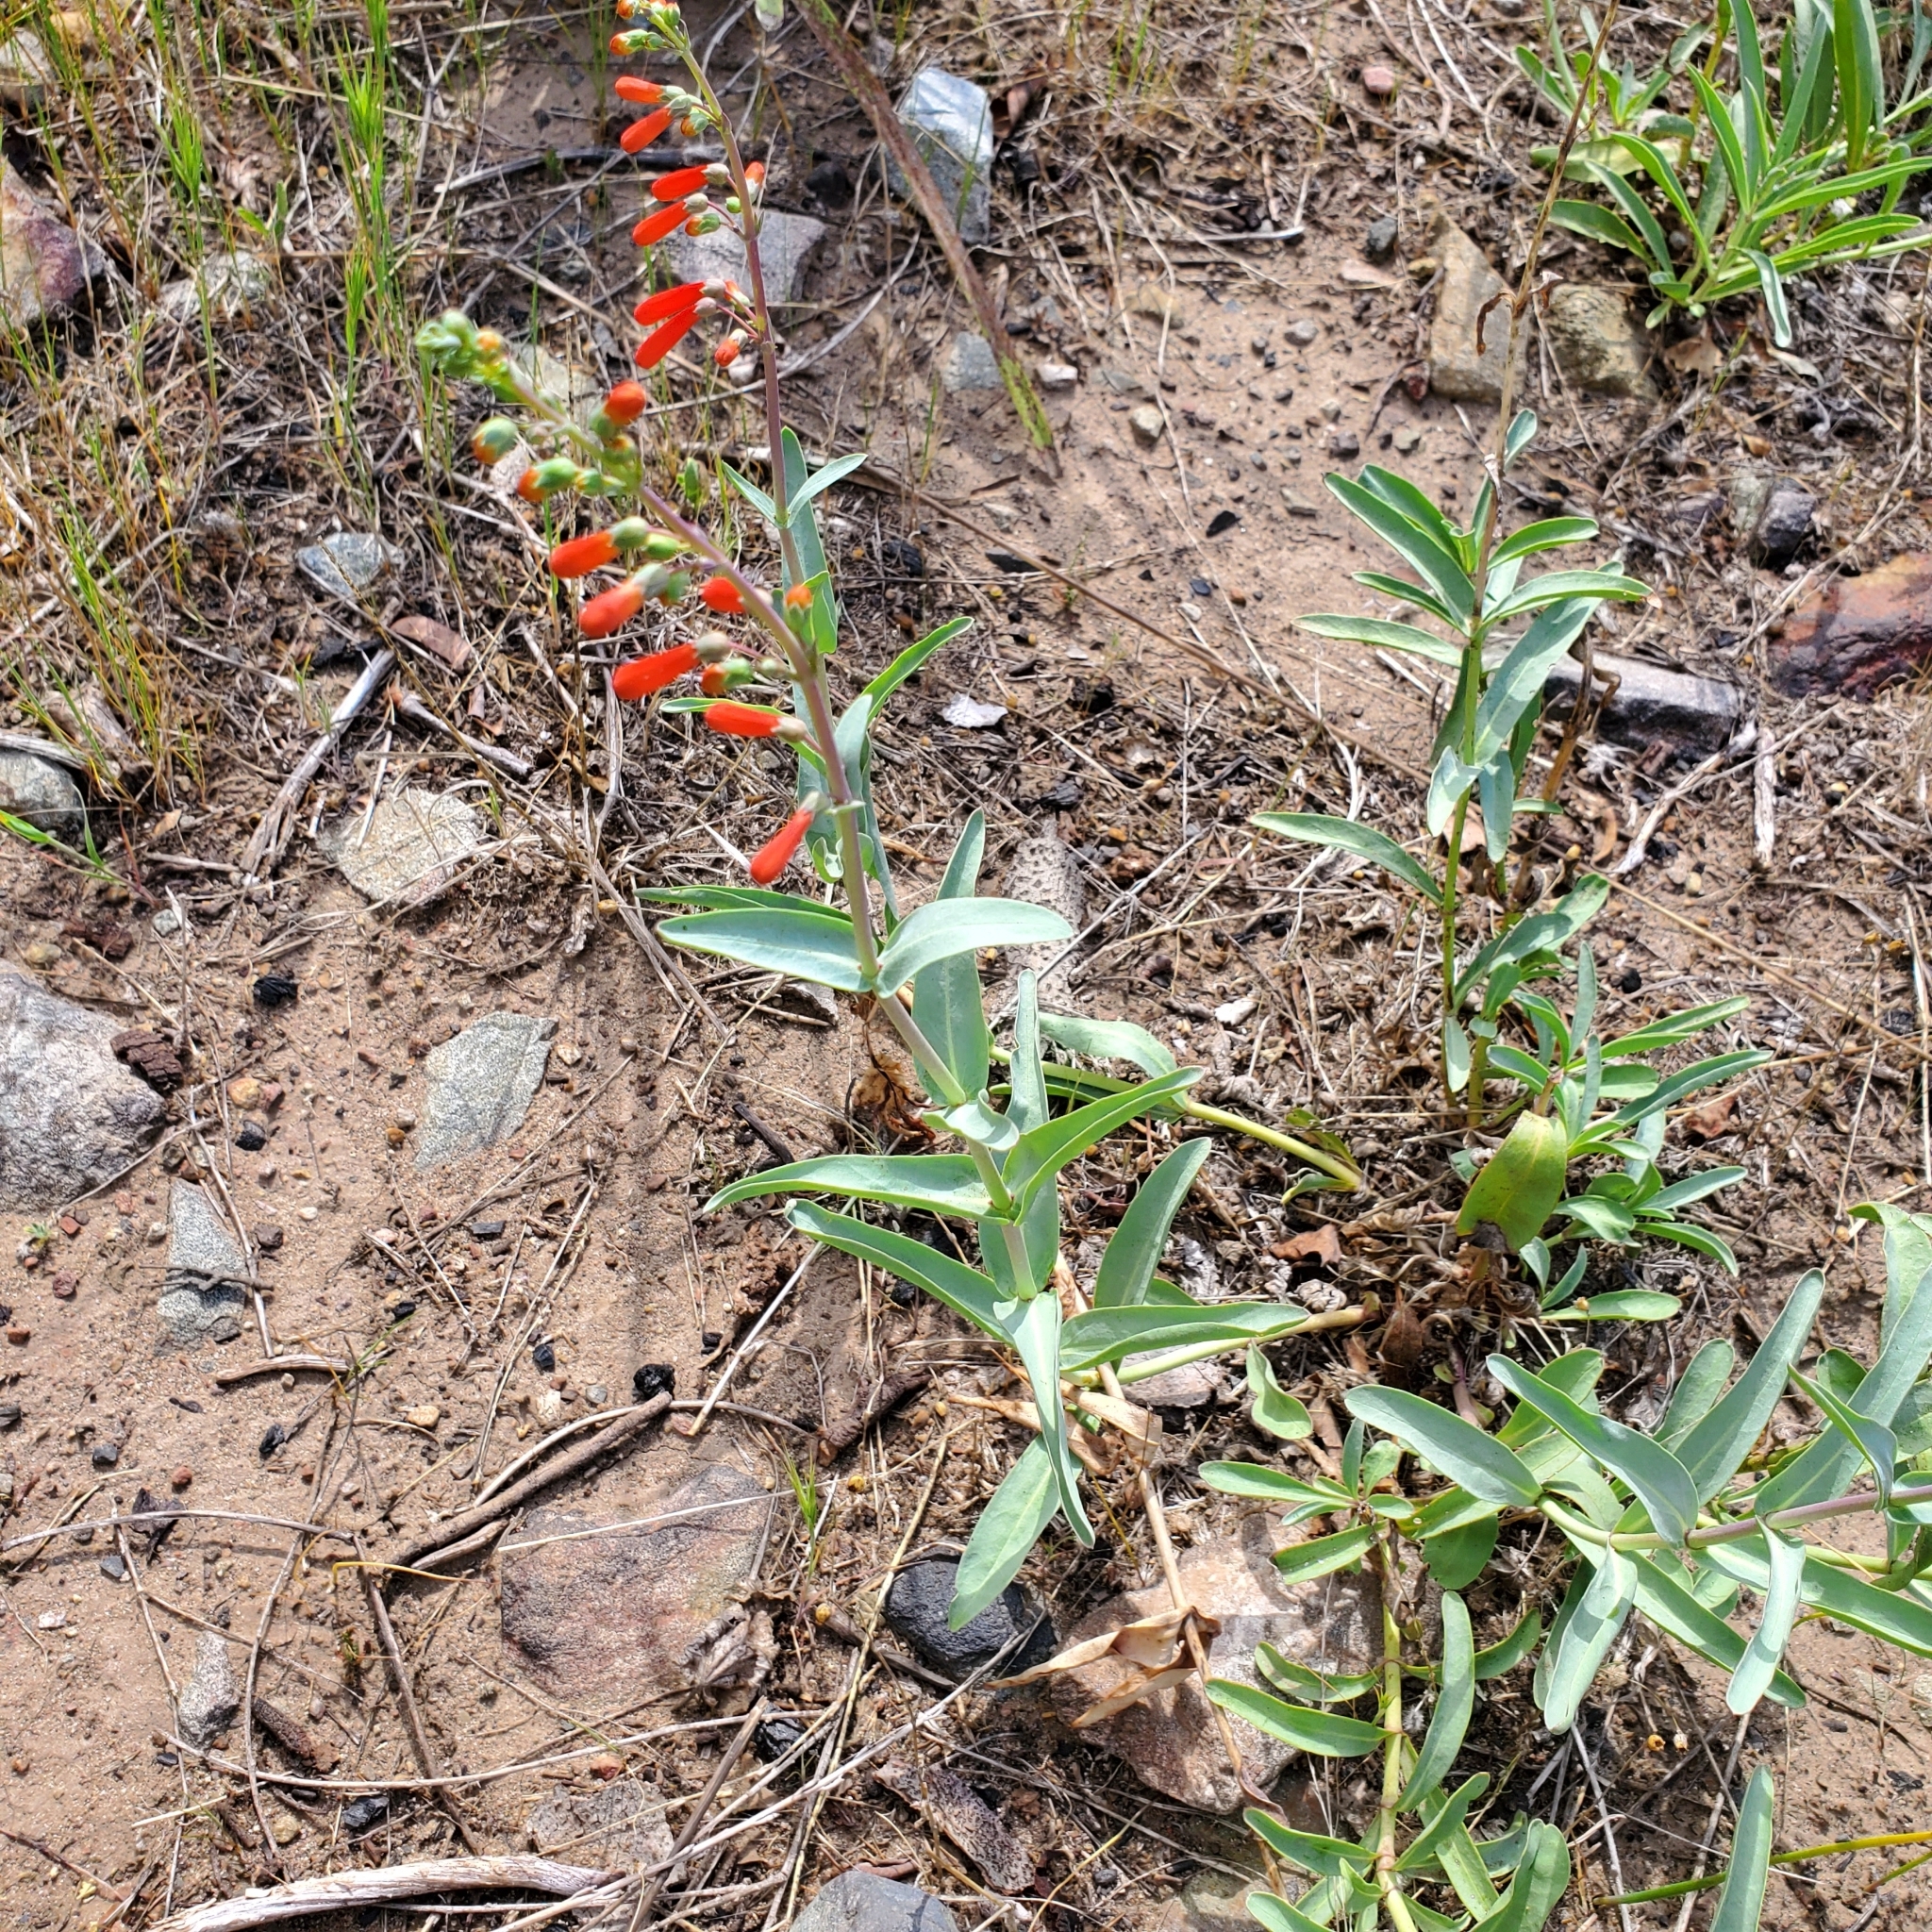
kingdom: Plantae
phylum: Tracheophyta
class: Magnoliopsida
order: Lamiales
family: Plantaginaceae
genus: Penstemon
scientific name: Penstemon centranthifolius
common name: Scarlet bugler
